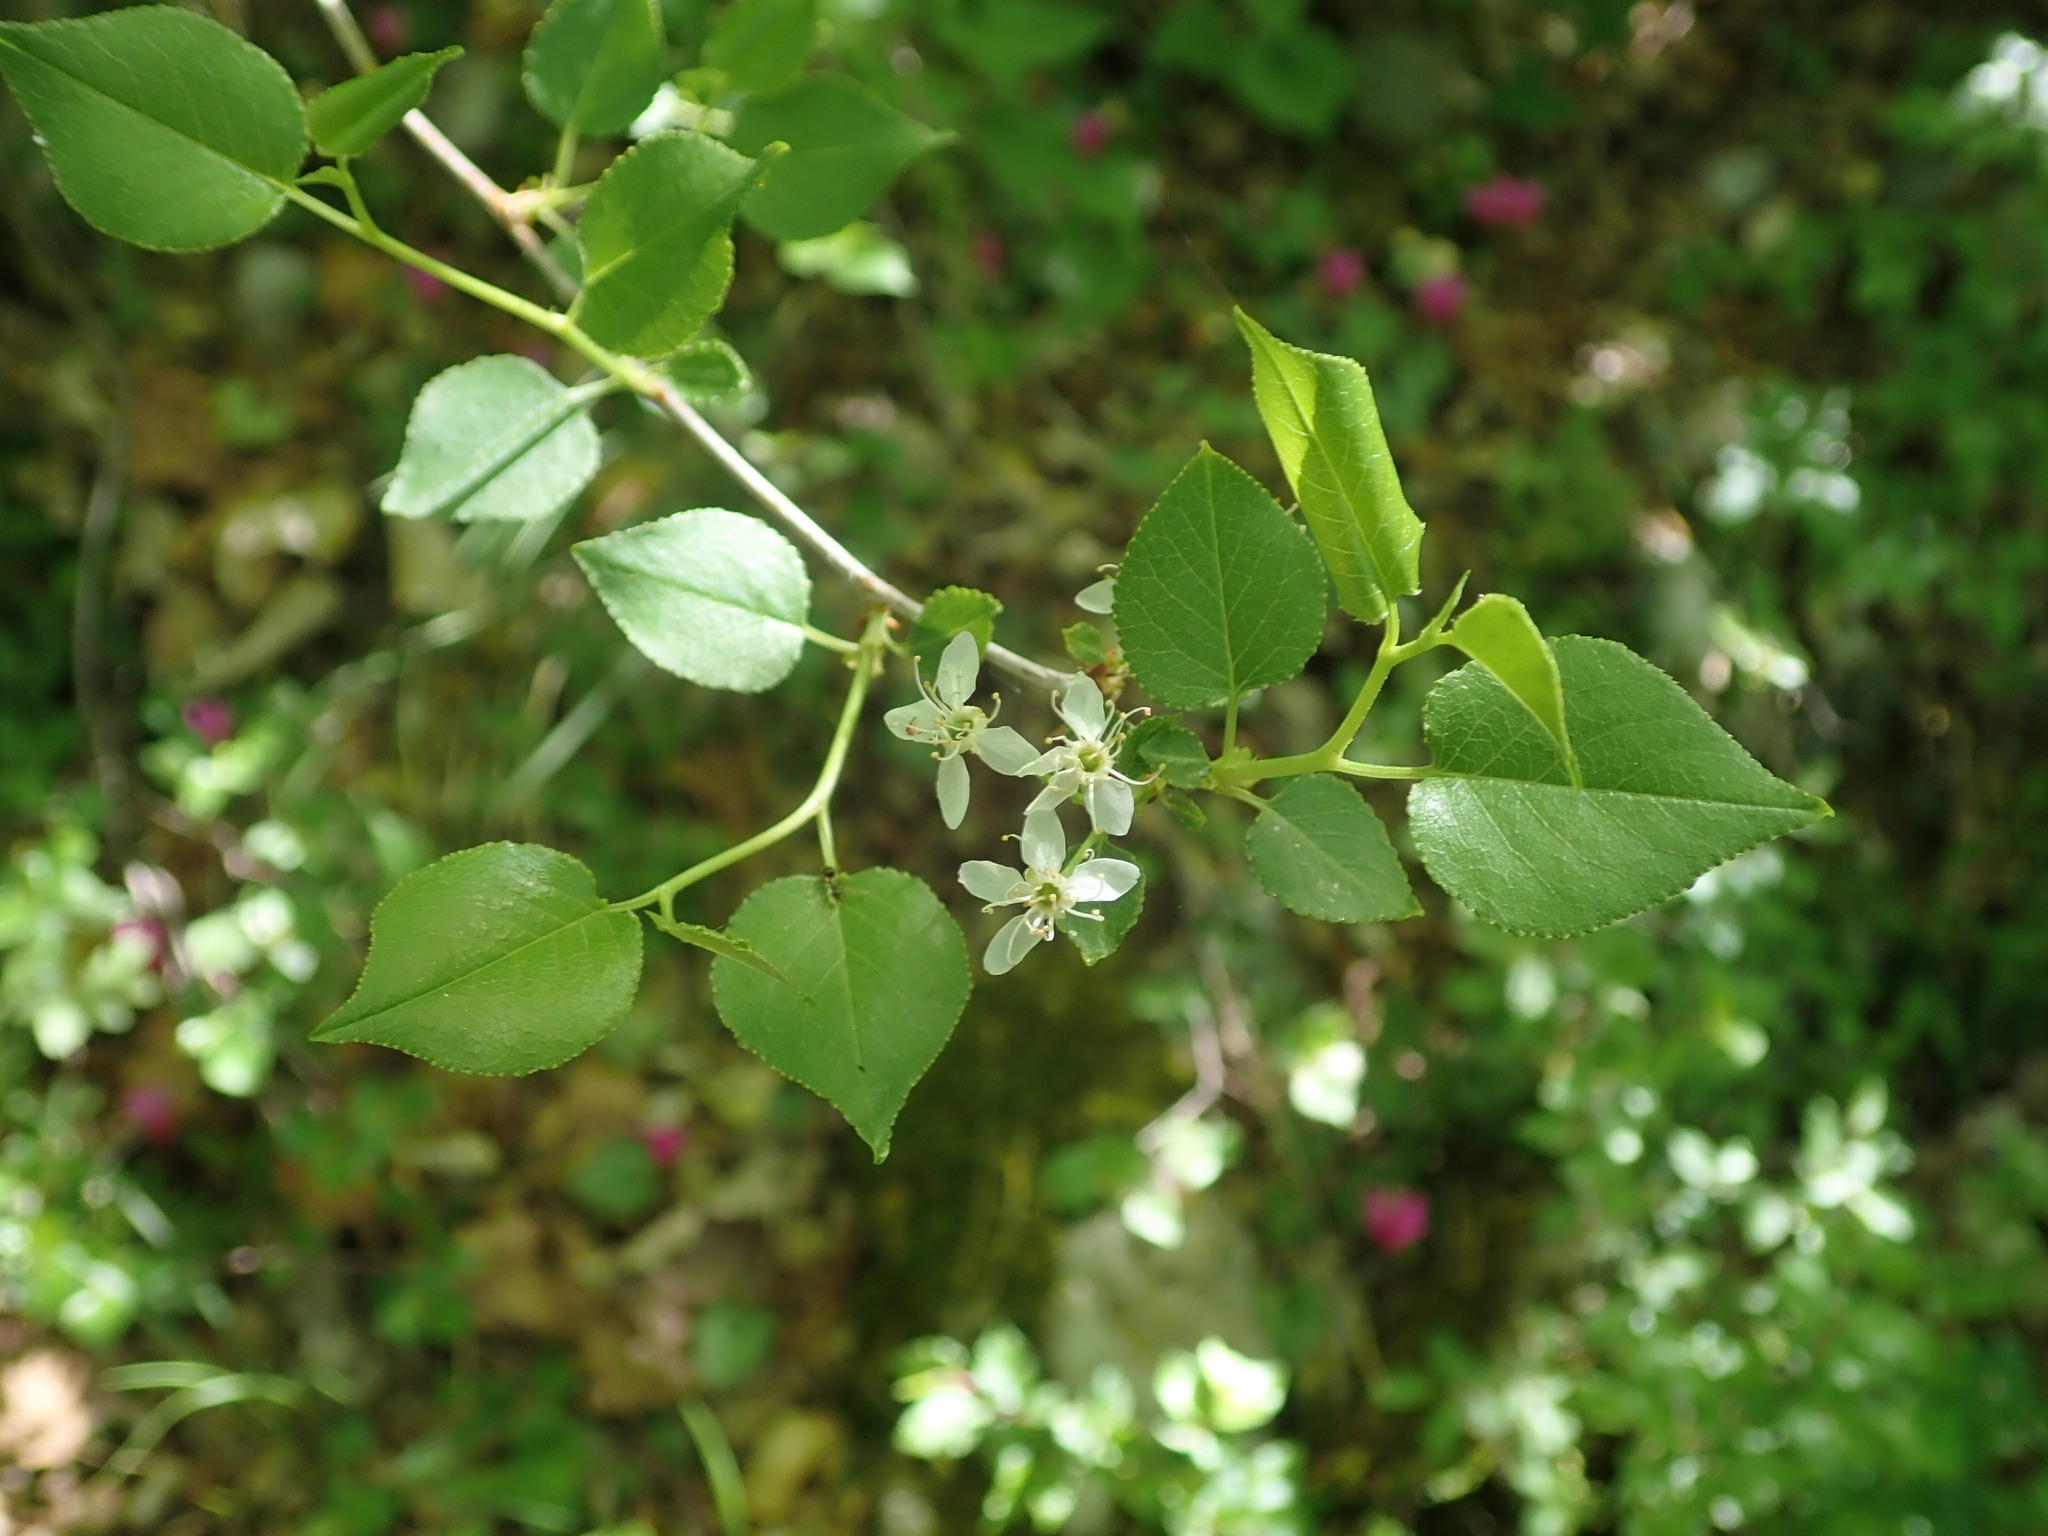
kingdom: Plantae
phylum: Tracheophyta
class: Magnoliopsida
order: Rosales
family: Rosaceae
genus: Prunus
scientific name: Prunus mahaleb
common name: Mahaleb cherry
